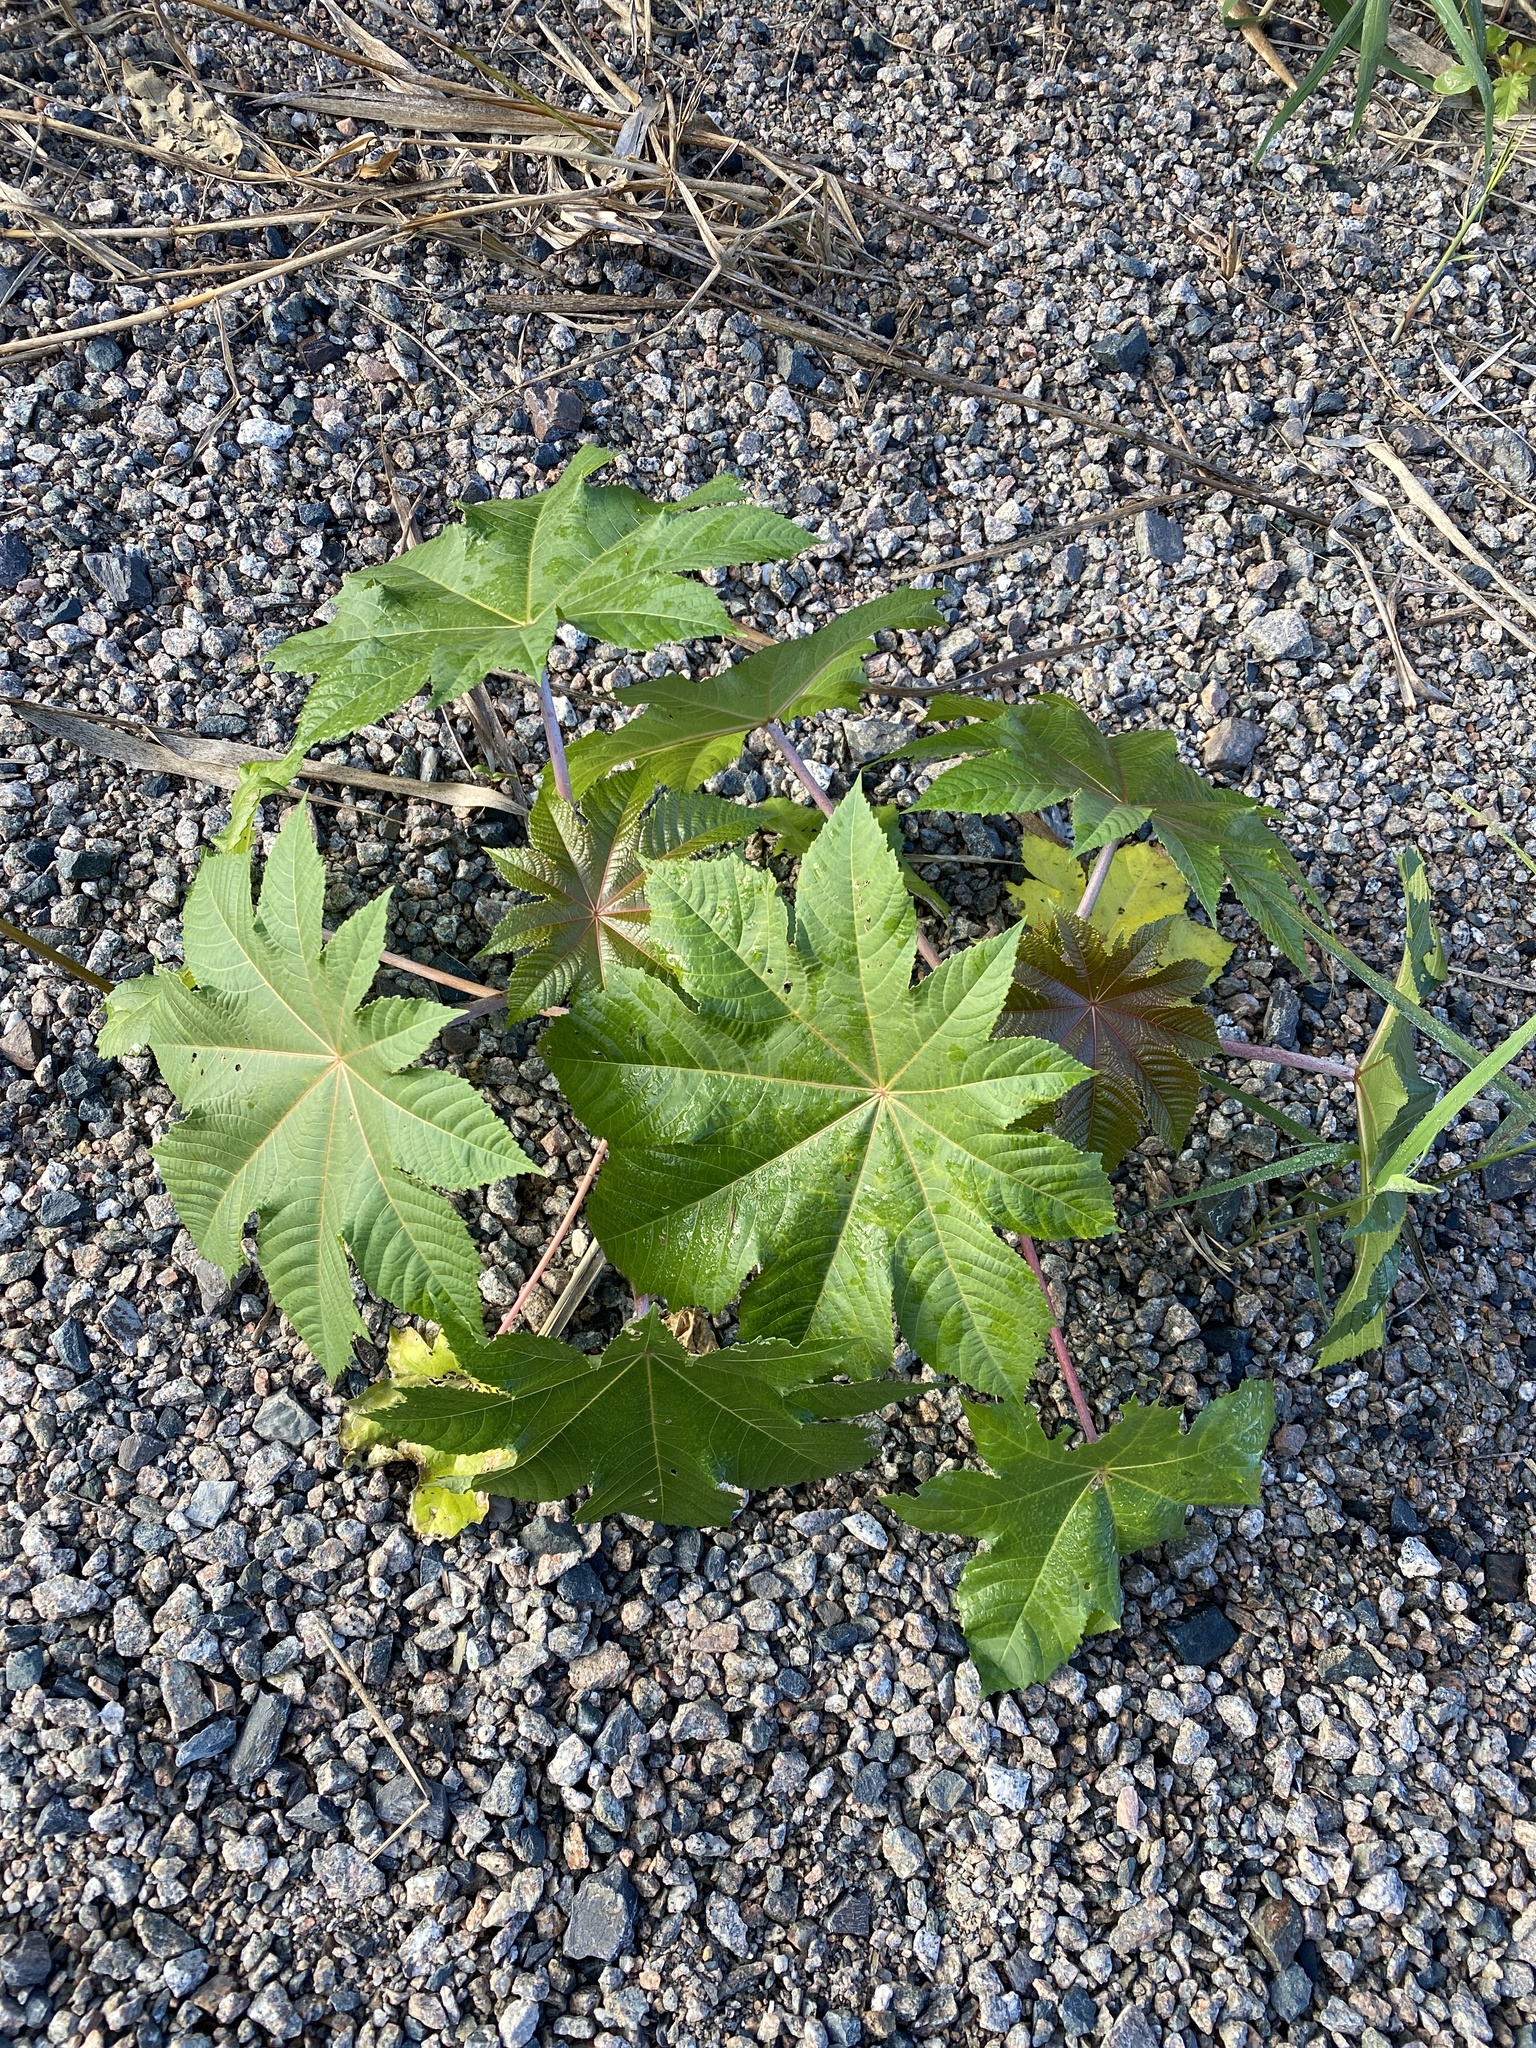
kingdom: Plantae
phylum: Tracheophyta
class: Magnoliopsida
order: Malpighiales
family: Euphorbiaceae
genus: Ricinus
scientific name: Ricinus communis
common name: Castor-oil-plant
